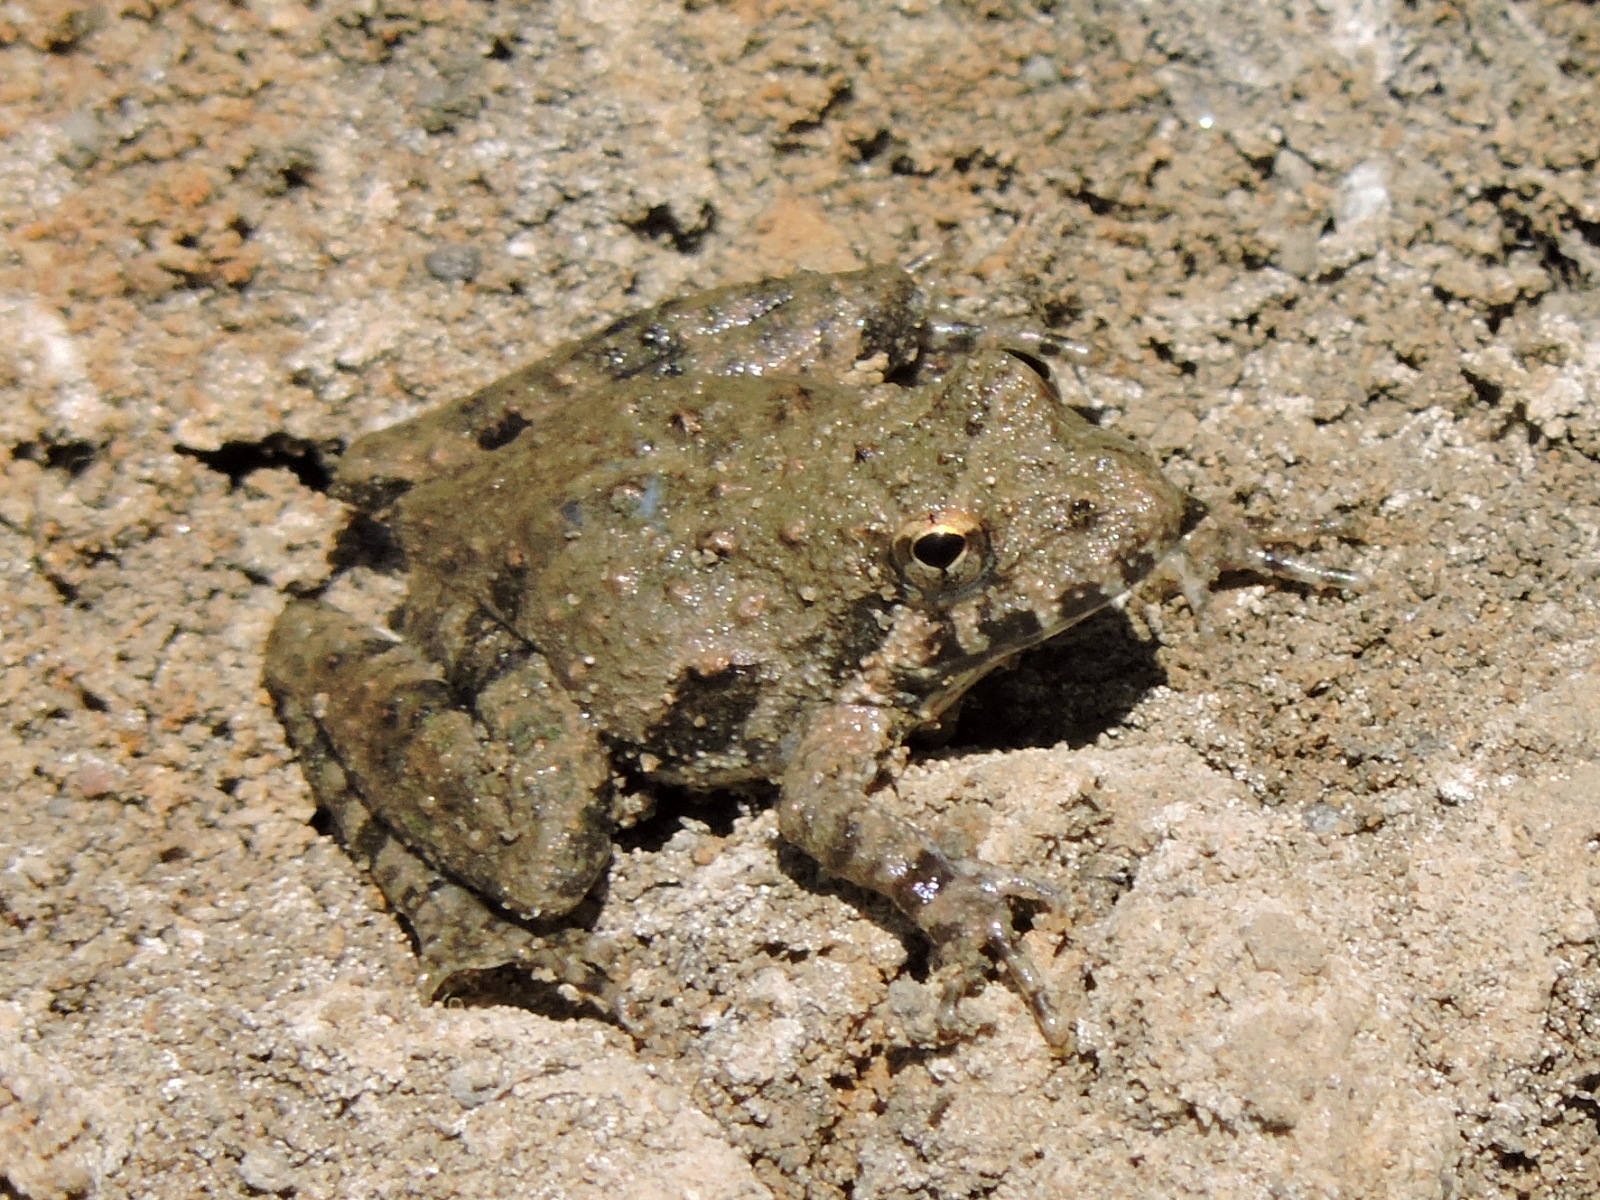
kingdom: Animalia
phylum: Chordata
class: Amphibia
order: Anura
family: Hylidae
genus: Acris
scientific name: Acris blanchardi
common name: Blanchard's cricket frog
